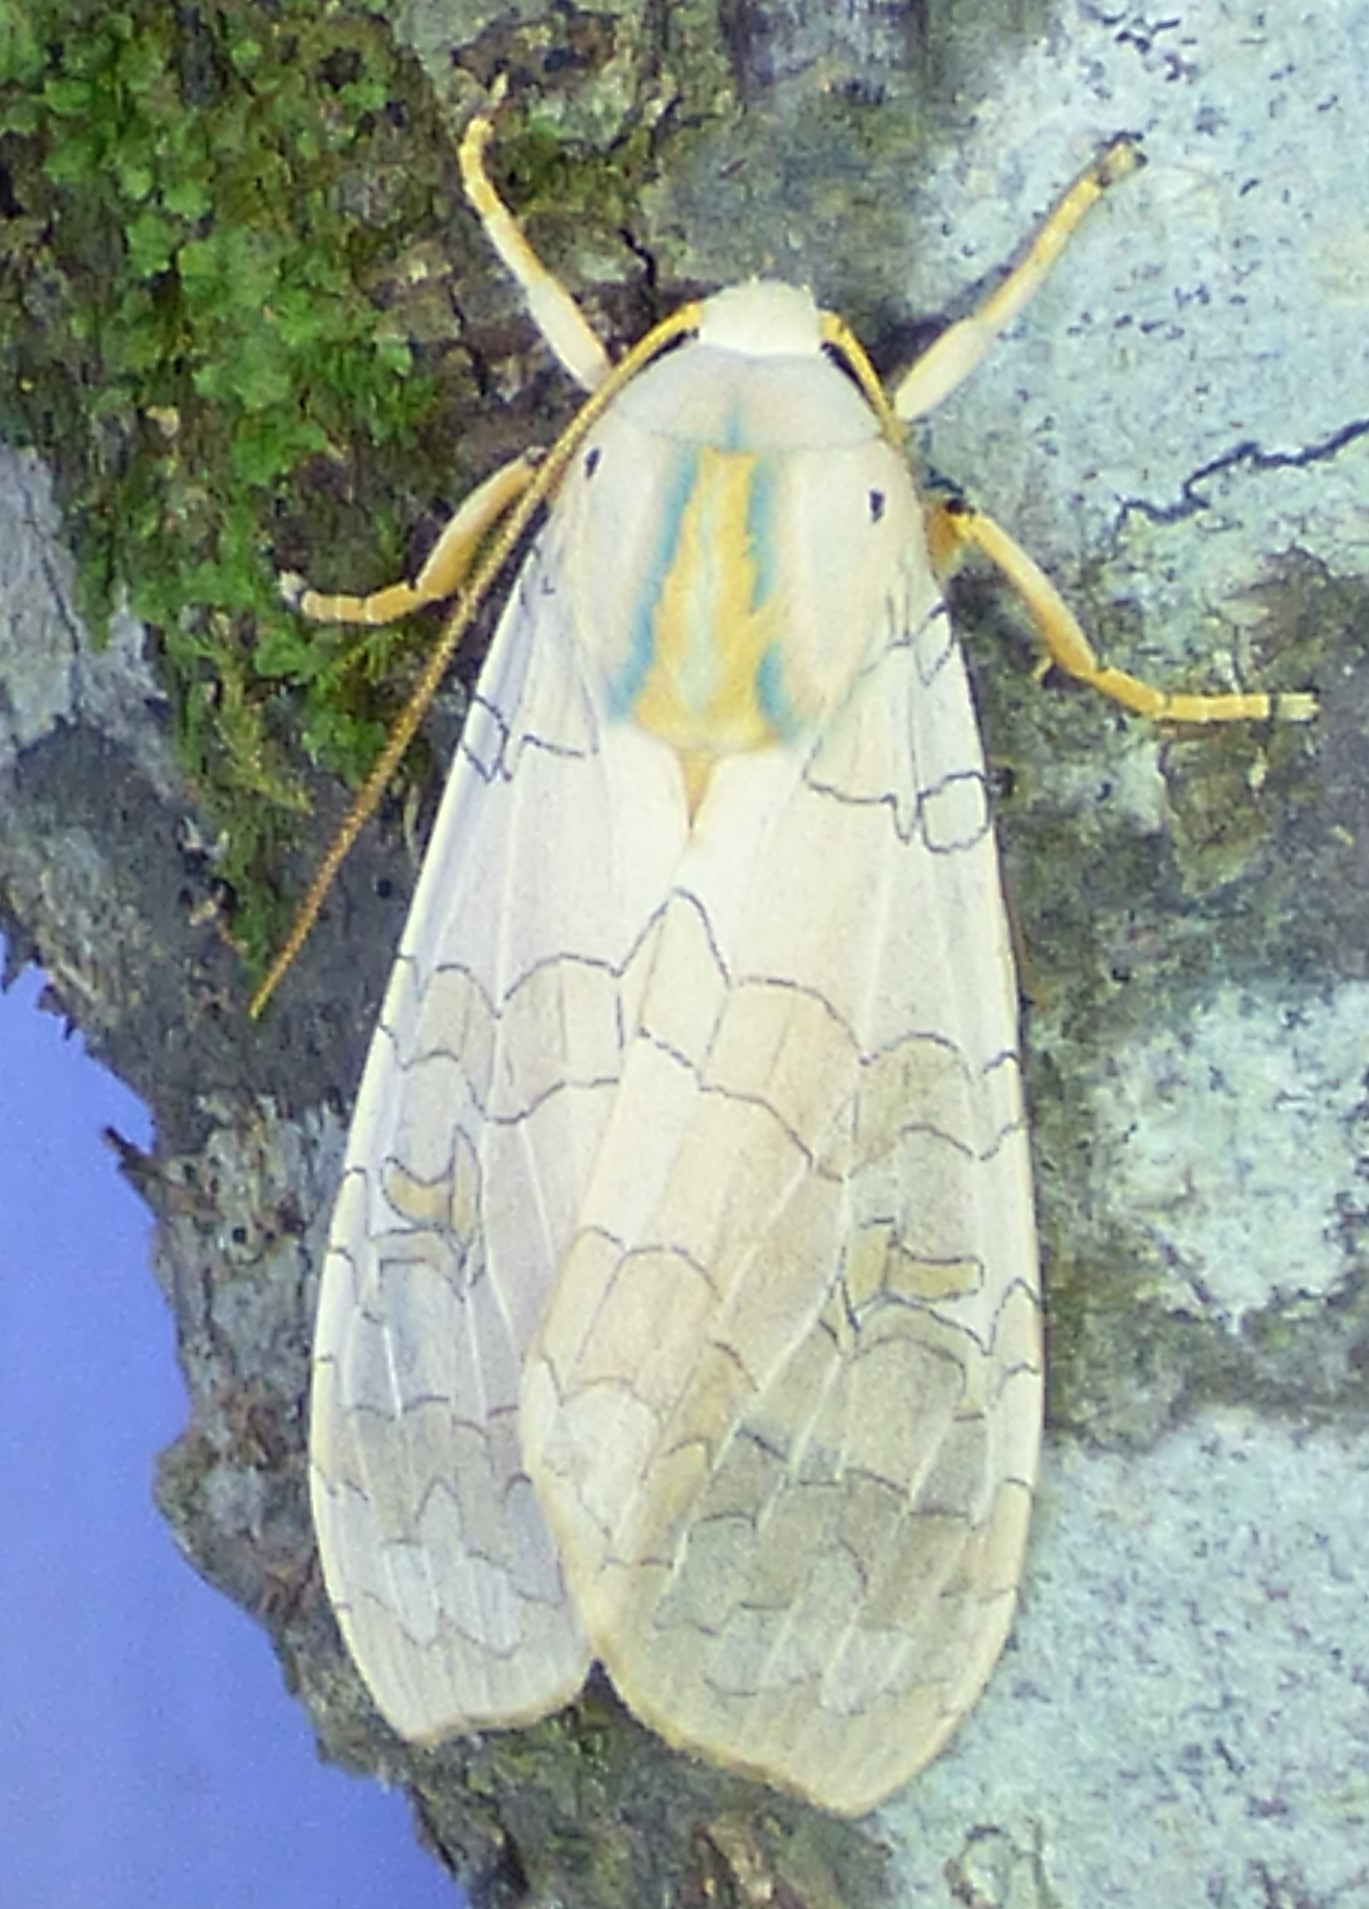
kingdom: Animalia
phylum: Arthropoda
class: Insecta
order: Lepidoptera
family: Erebidae
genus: Halysidota
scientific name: Halysidota
